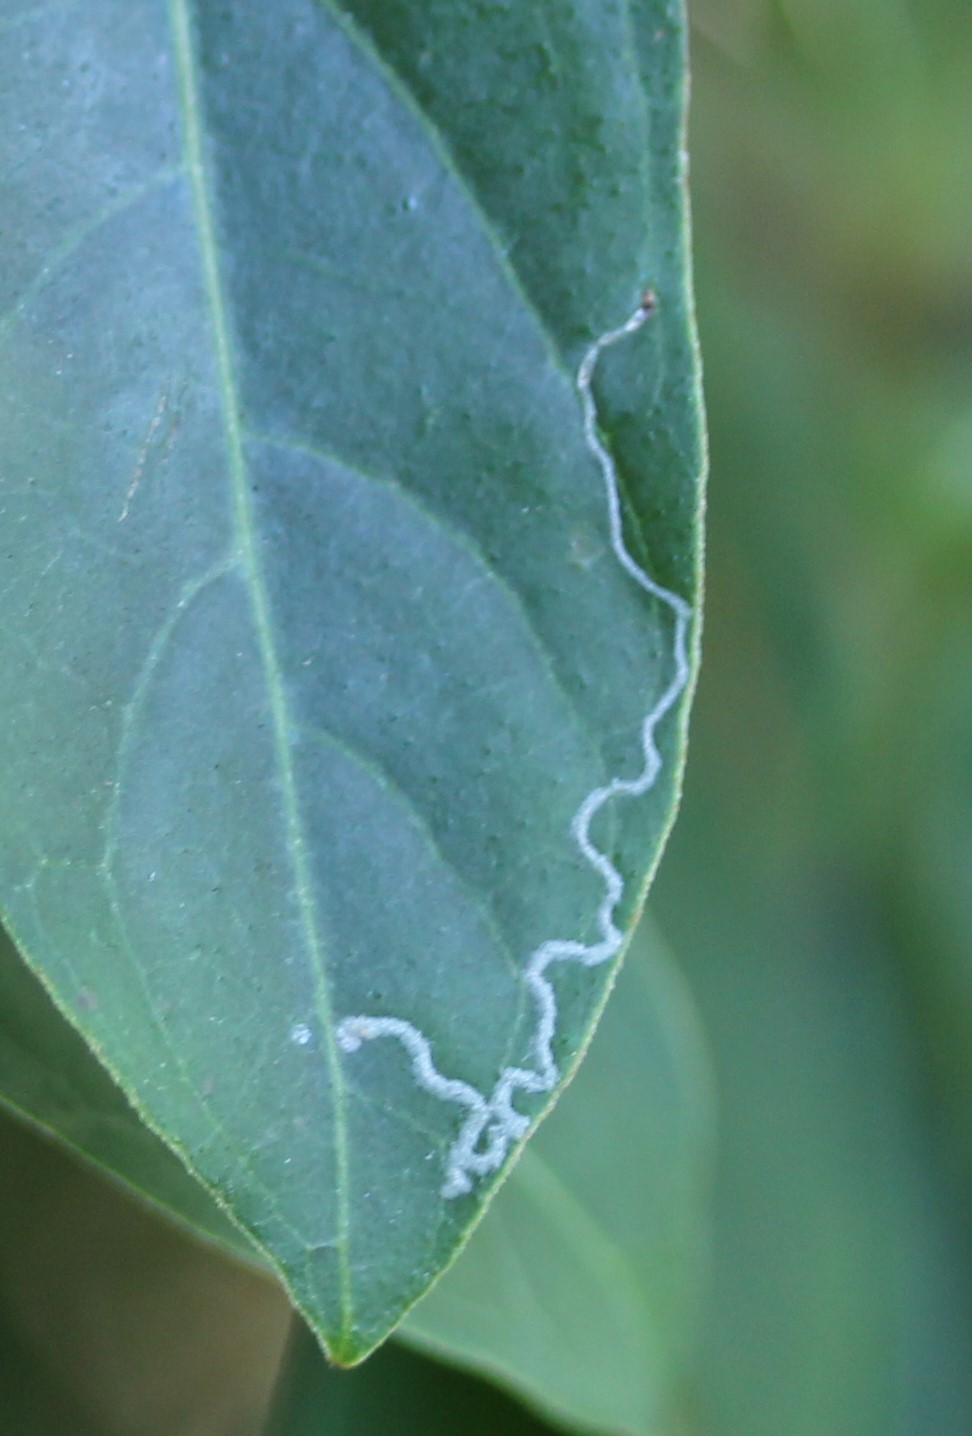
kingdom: Animalia
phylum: Arthropoda
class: Insecta
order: Diptera
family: Agromyzidae
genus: Liriomyza
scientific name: Liriomyza schmidti
